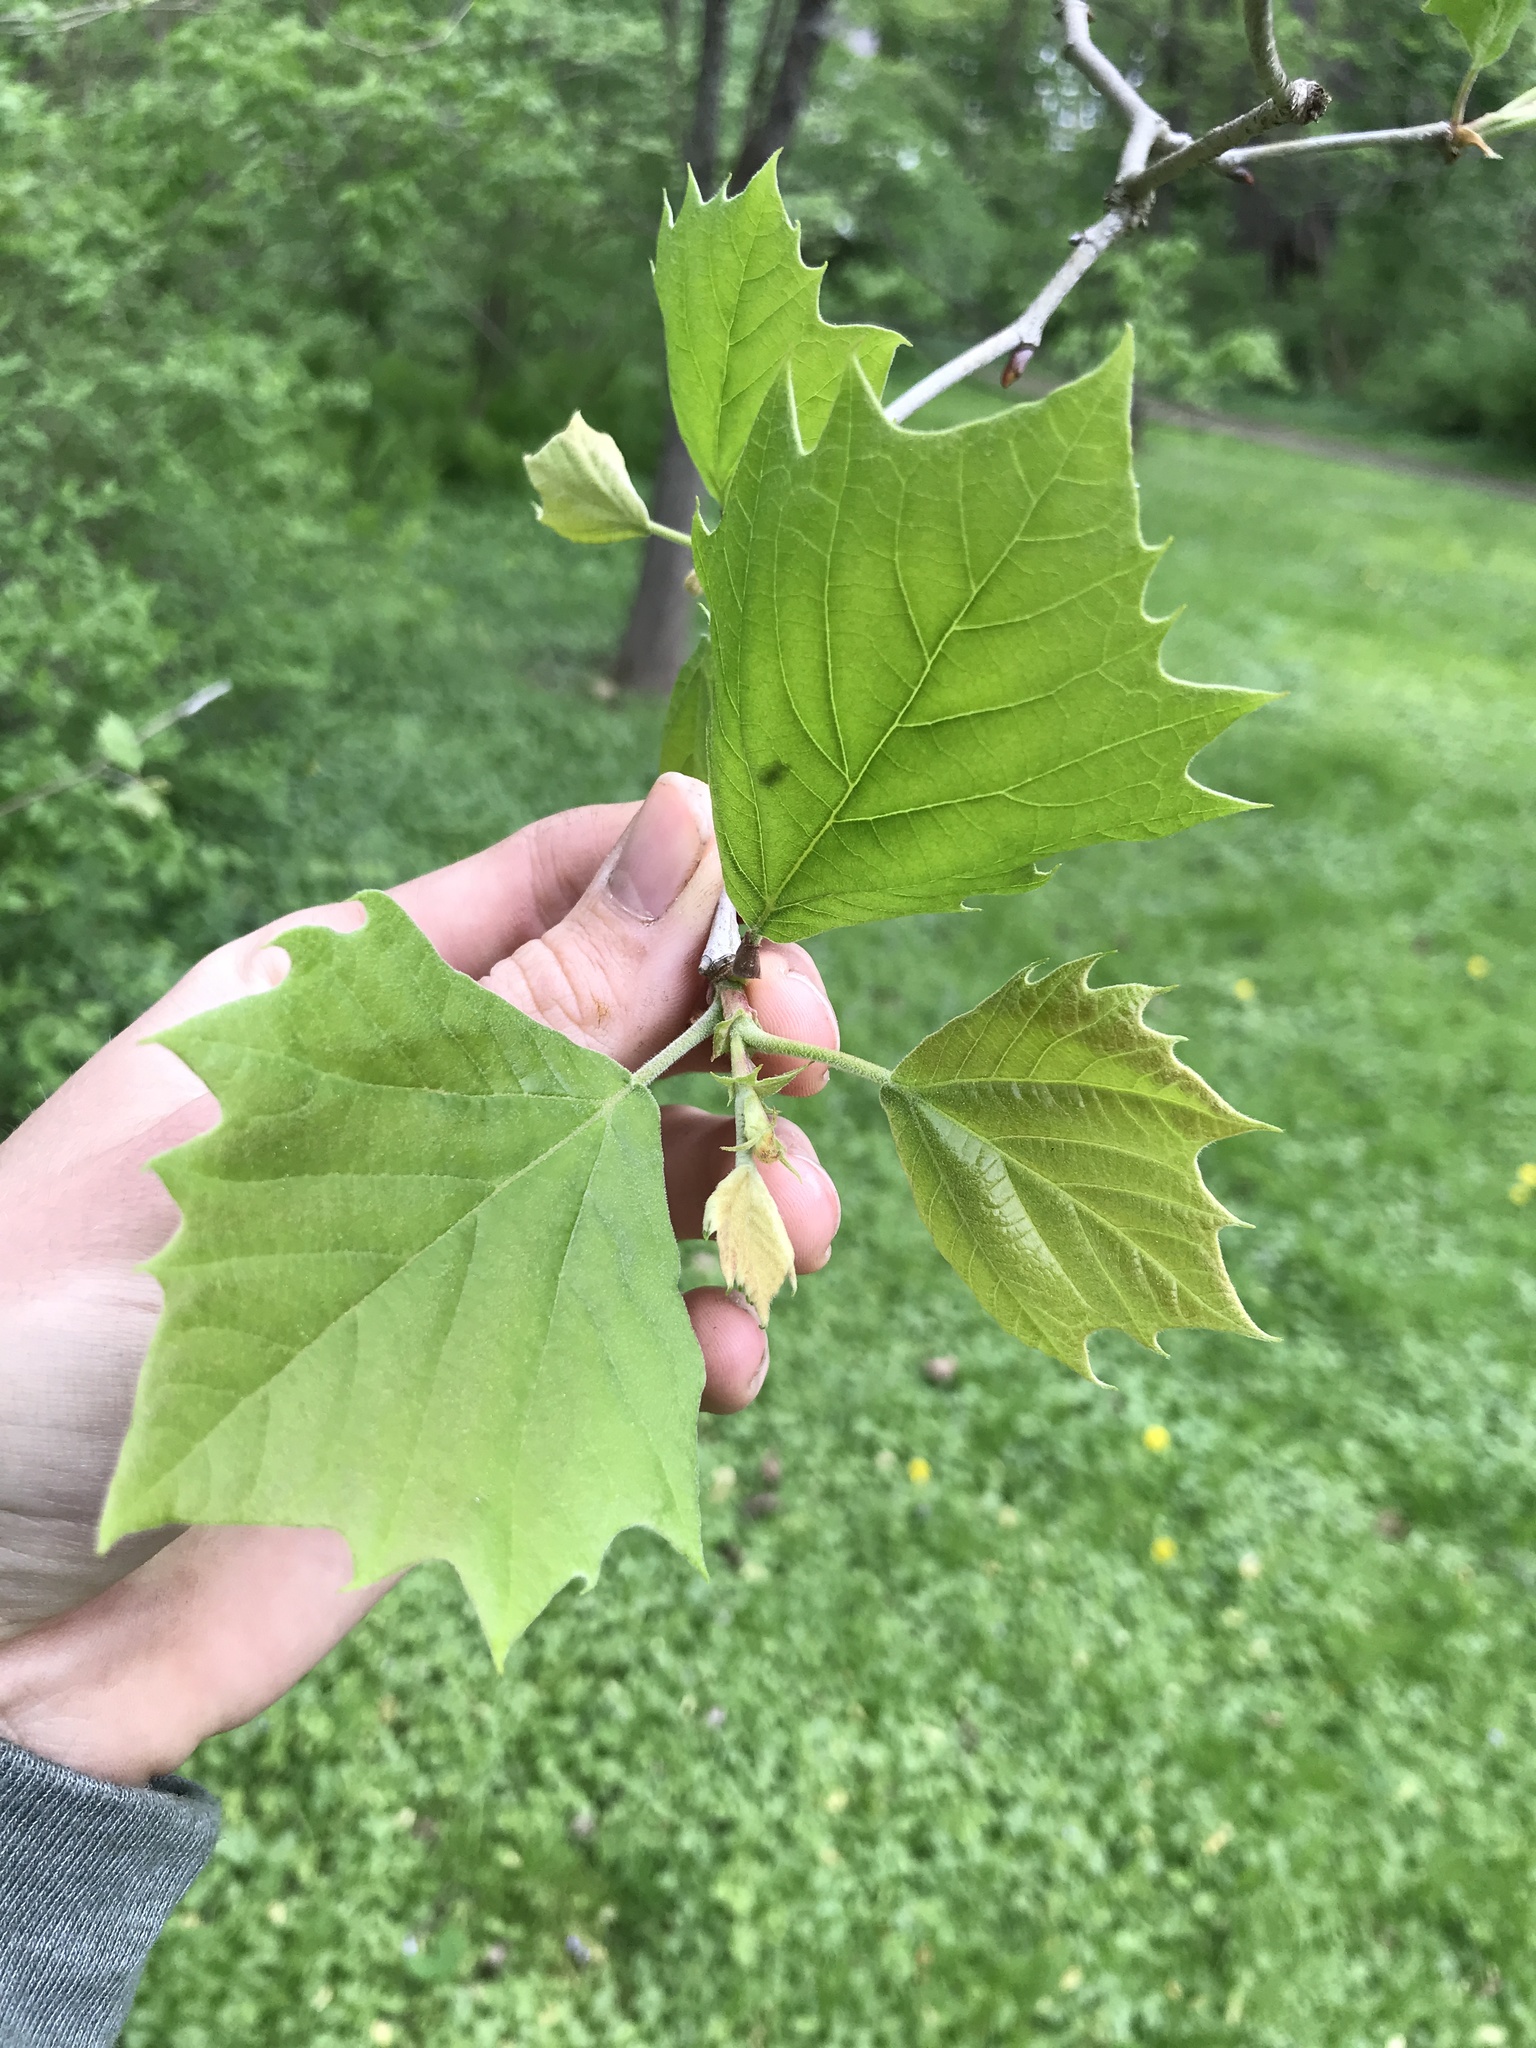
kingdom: Plantae
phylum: Tracheophyta
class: Magnoliopsida
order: Proteales
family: Platanaceae
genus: Platanus
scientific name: Platanus occidentalis
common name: American sycamore
